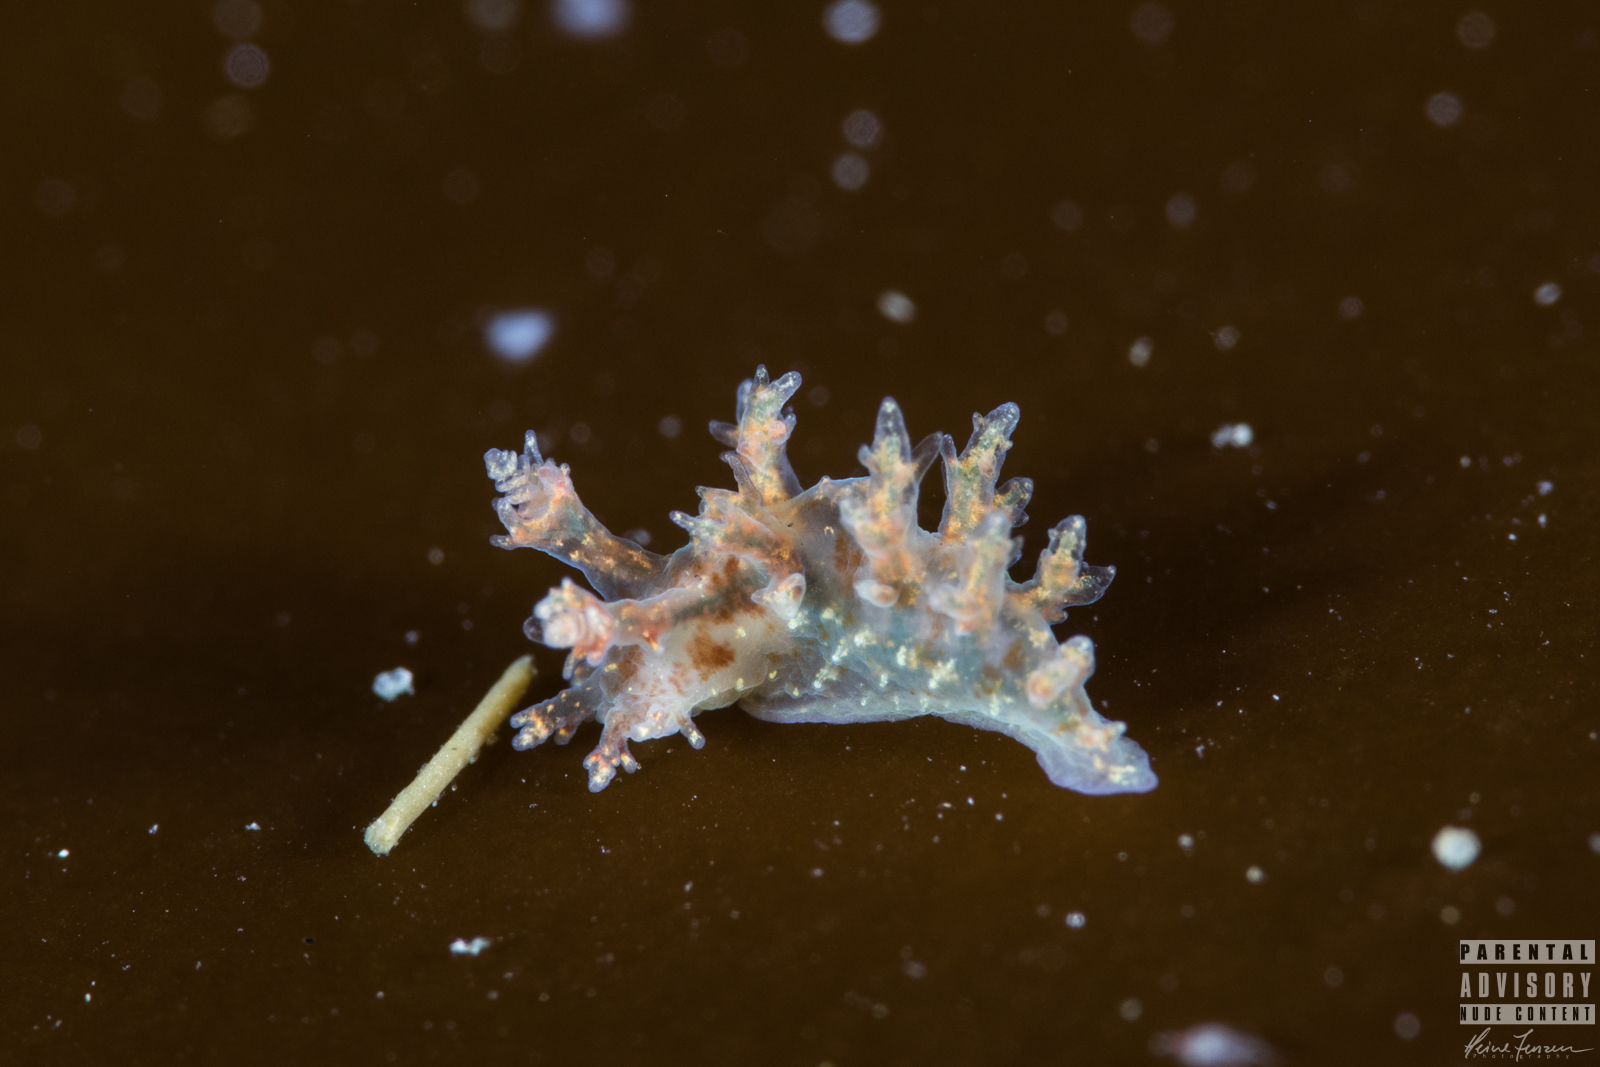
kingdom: Animalia
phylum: Mollusca
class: Gastropoda
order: Nudibranchia
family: Dendronotidae
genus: Dendronotus
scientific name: Dendronotus frondosus
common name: Bushy-backed nudibranch
